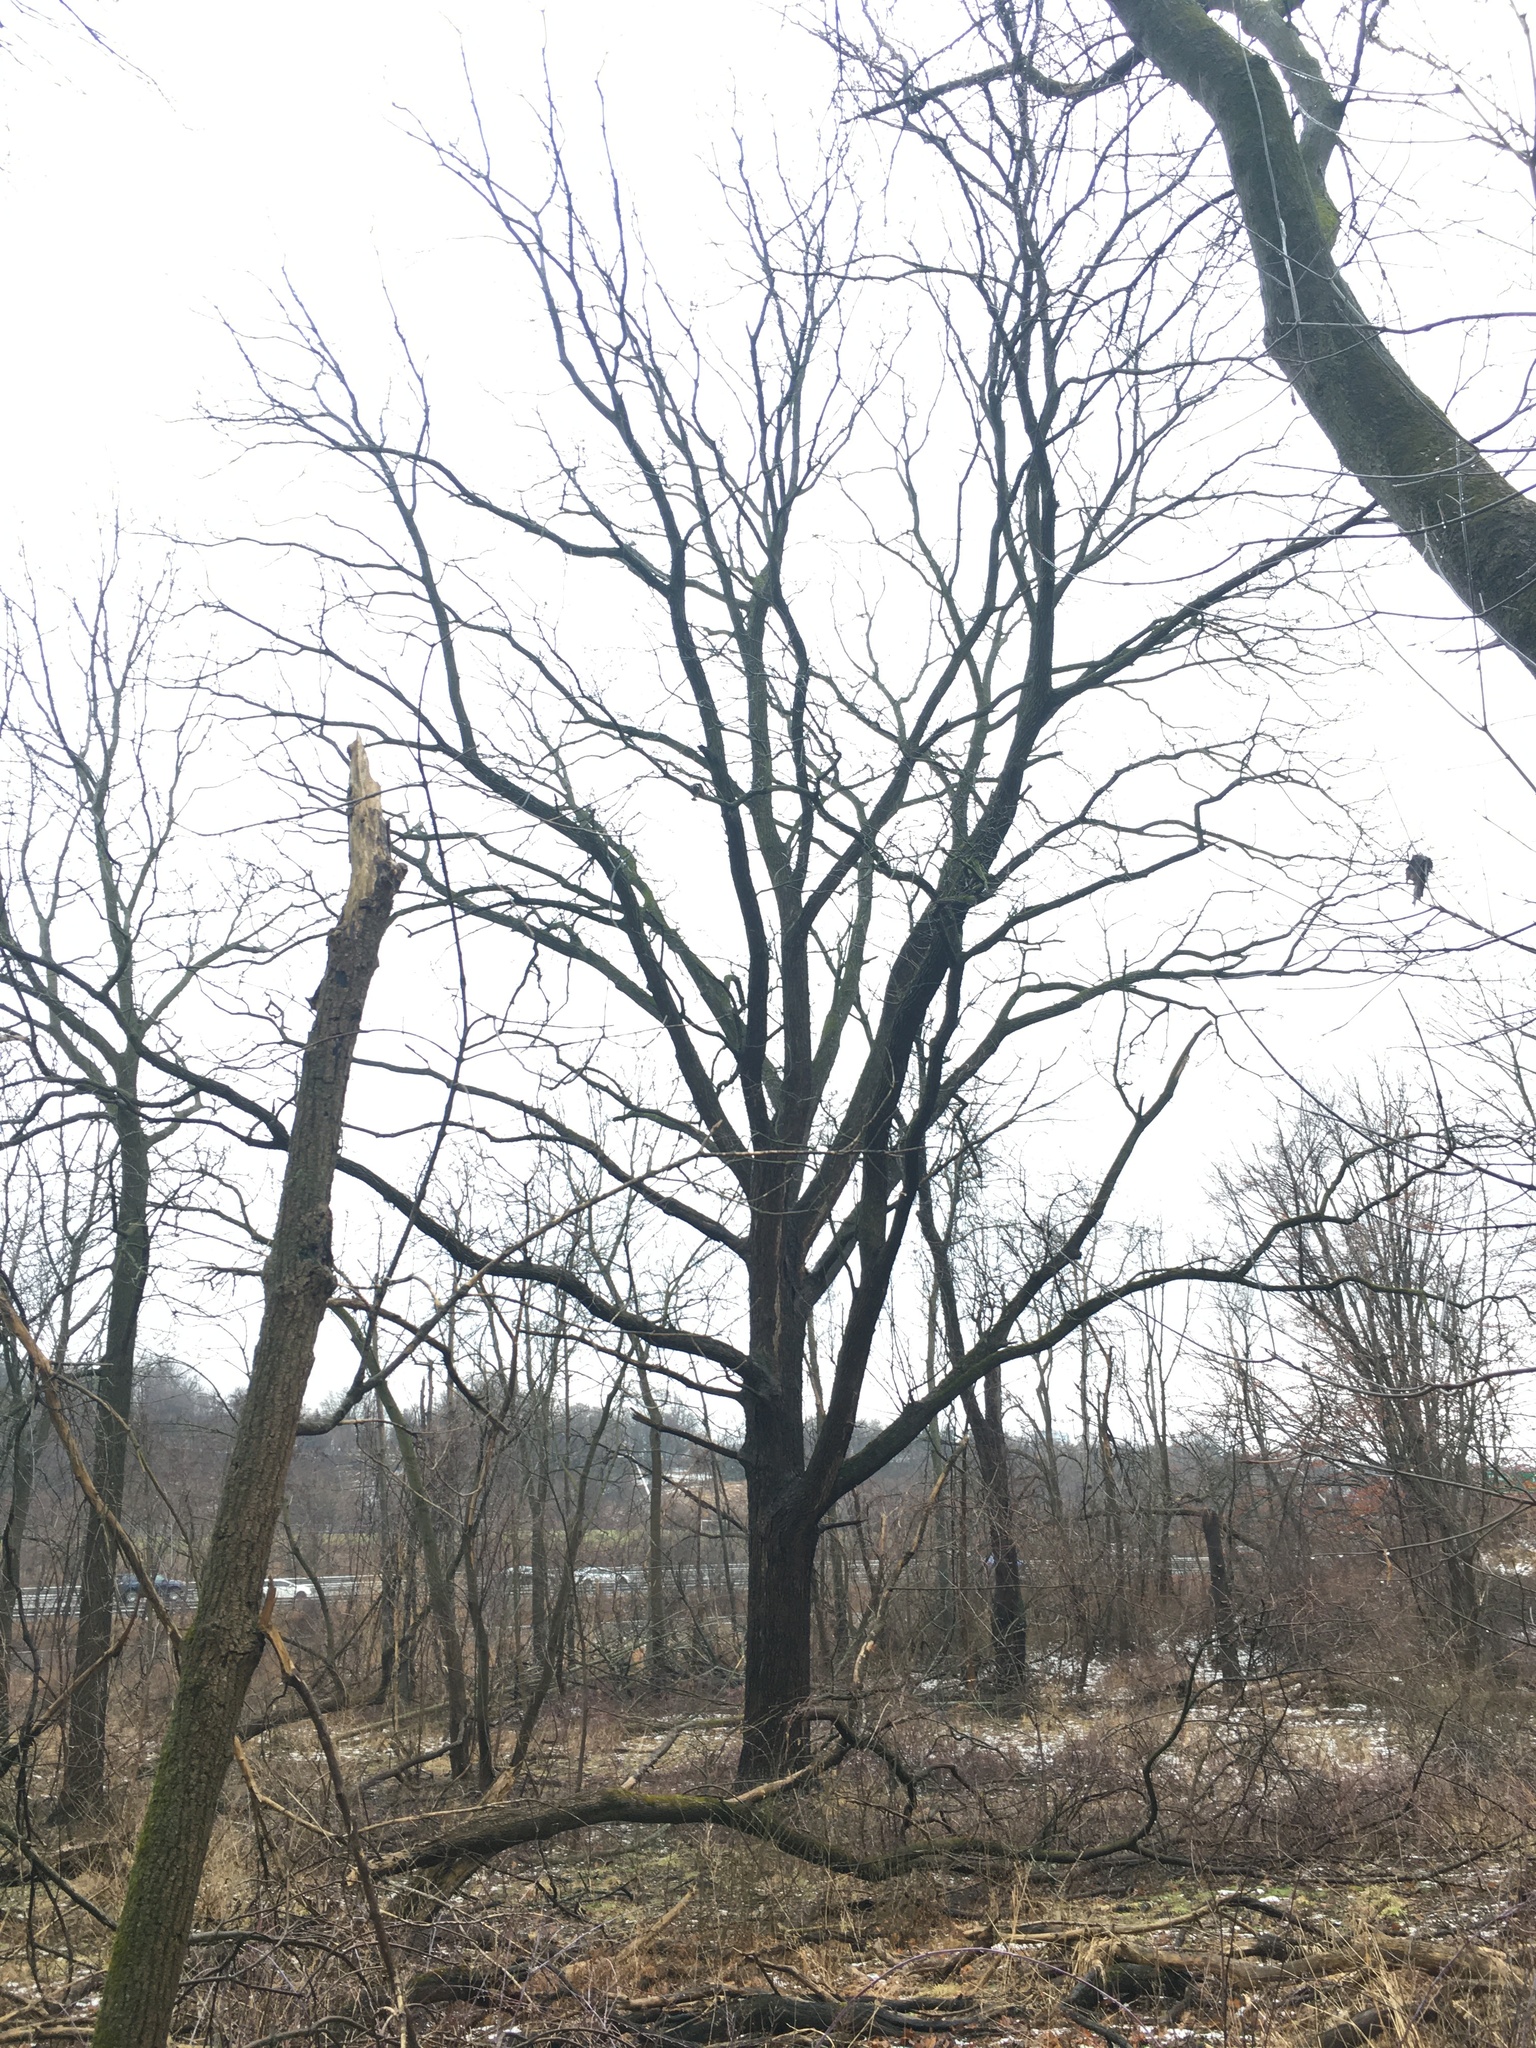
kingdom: Plantae
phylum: Tracheophyta
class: Magnoliopsida
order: Fagales
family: Juglandaceae
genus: Juglans
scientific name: Juglans nigra
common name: Black walnut
